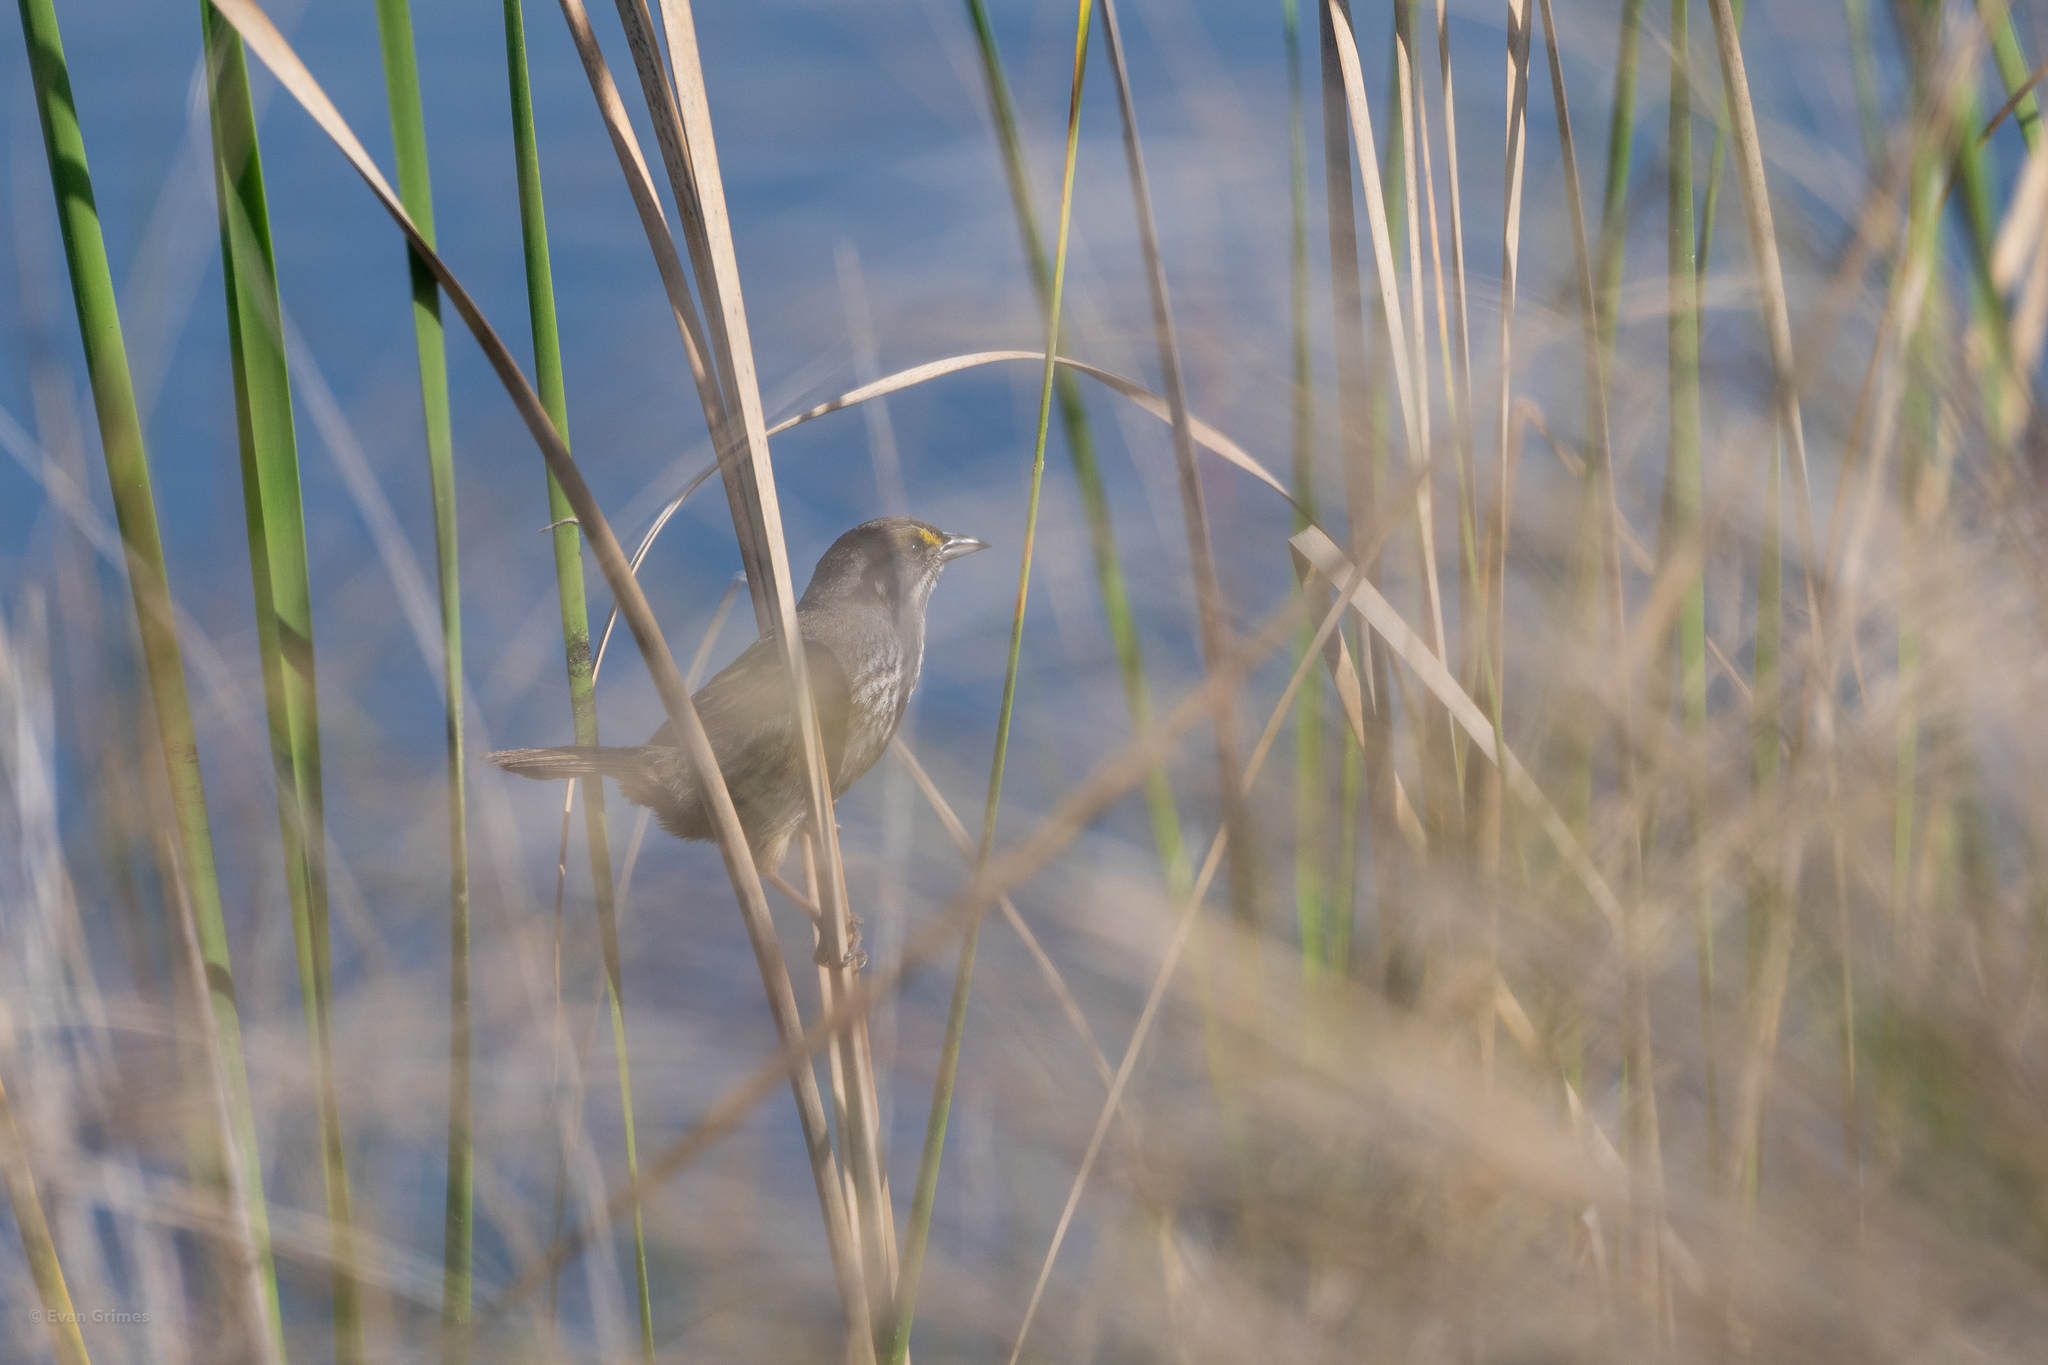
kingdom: Animalia
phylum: Chordata
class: Aves
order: Passeriformes
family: Passerellidae
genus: Ammospiza
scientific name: Ammospiza maritima
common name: Seaside sparrow
